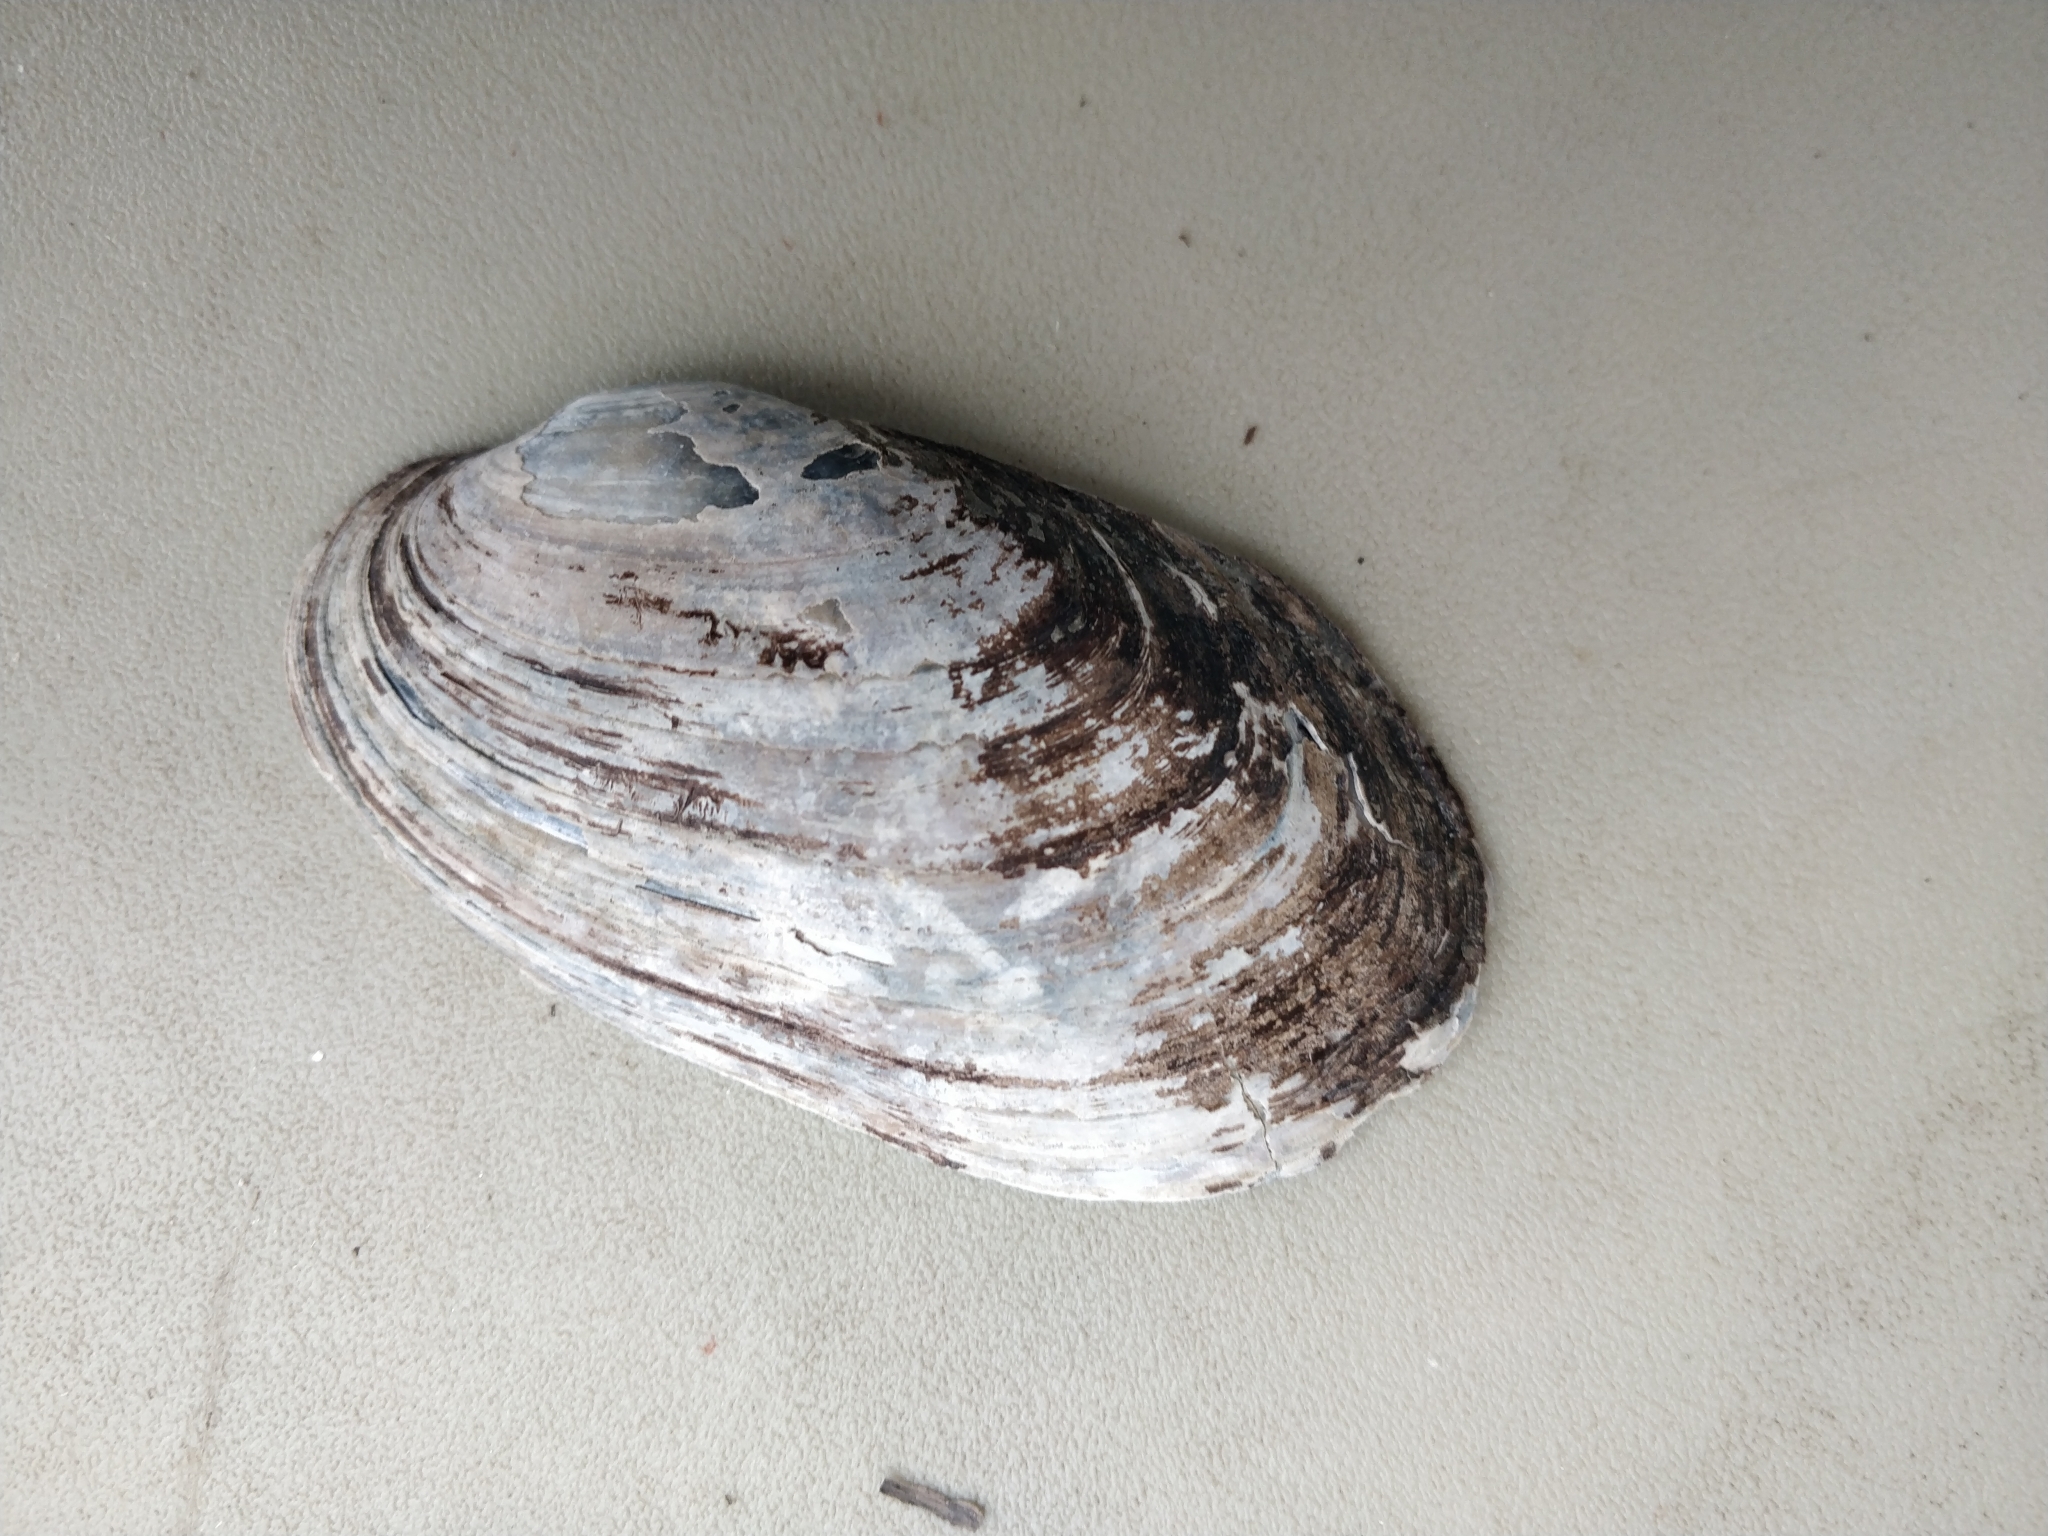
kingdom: Animalia
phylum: Mollusca
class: Bivalvia
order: Unionida
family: Unionidae
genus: Lampsilis
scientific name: Lampsilis siliquoidea
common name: Fatmucket
